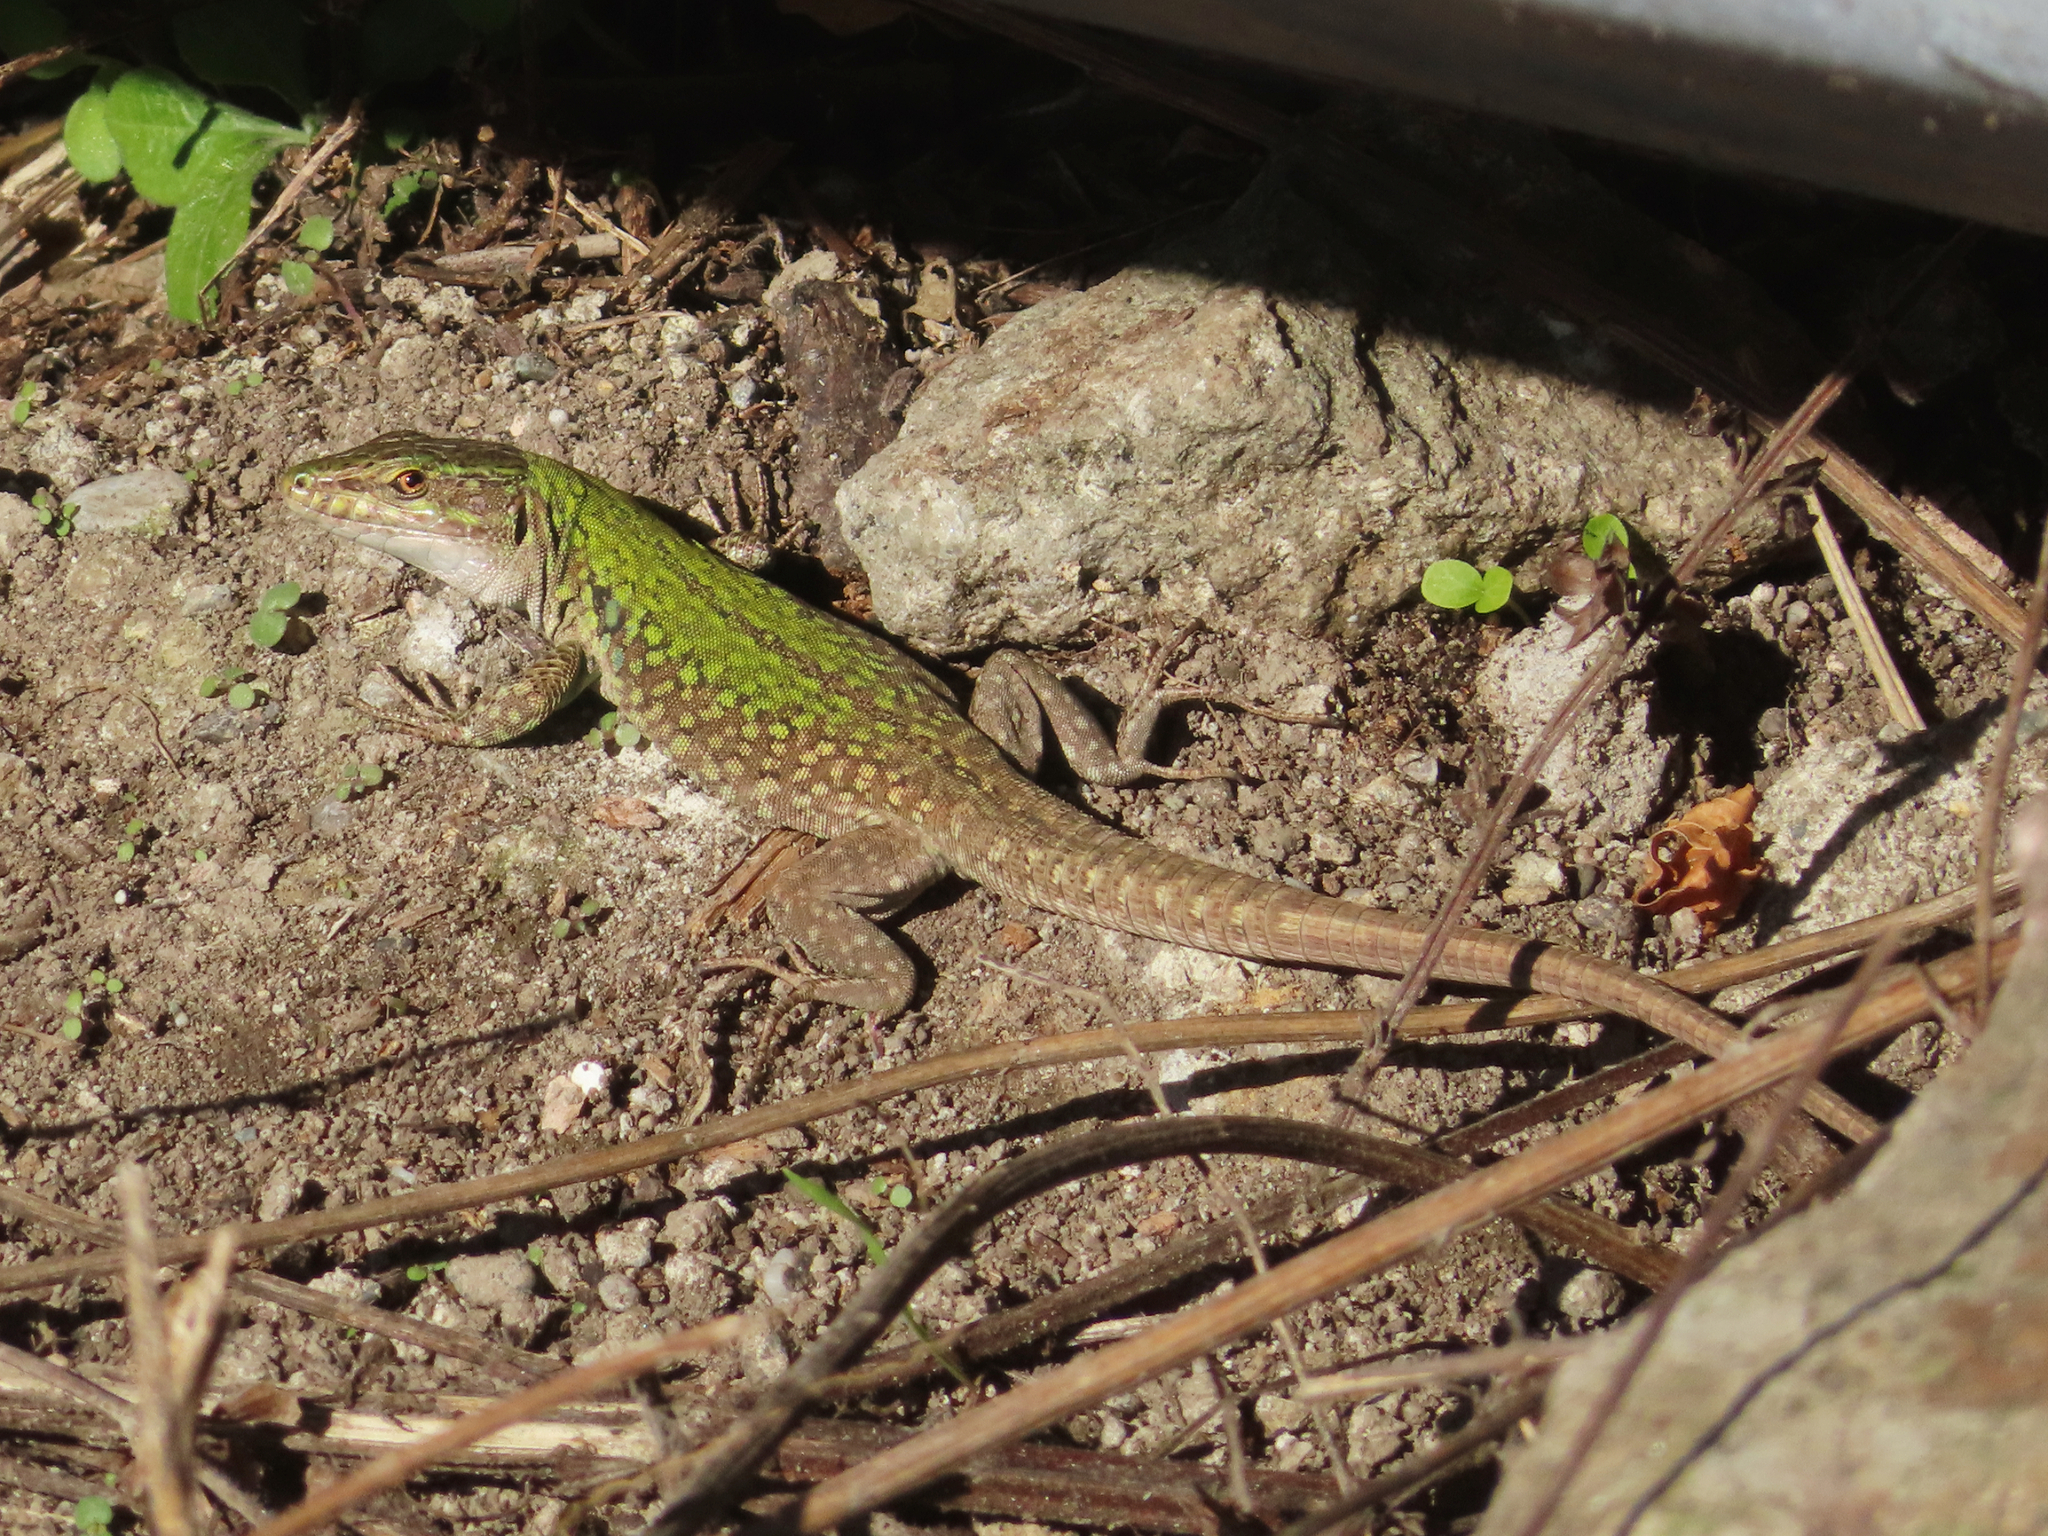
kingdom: Animalia
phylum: Chordata
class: Squamata
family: Lacertidae
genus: Podarcis
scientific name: Podarcis siculus
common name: Italian wall lizard
